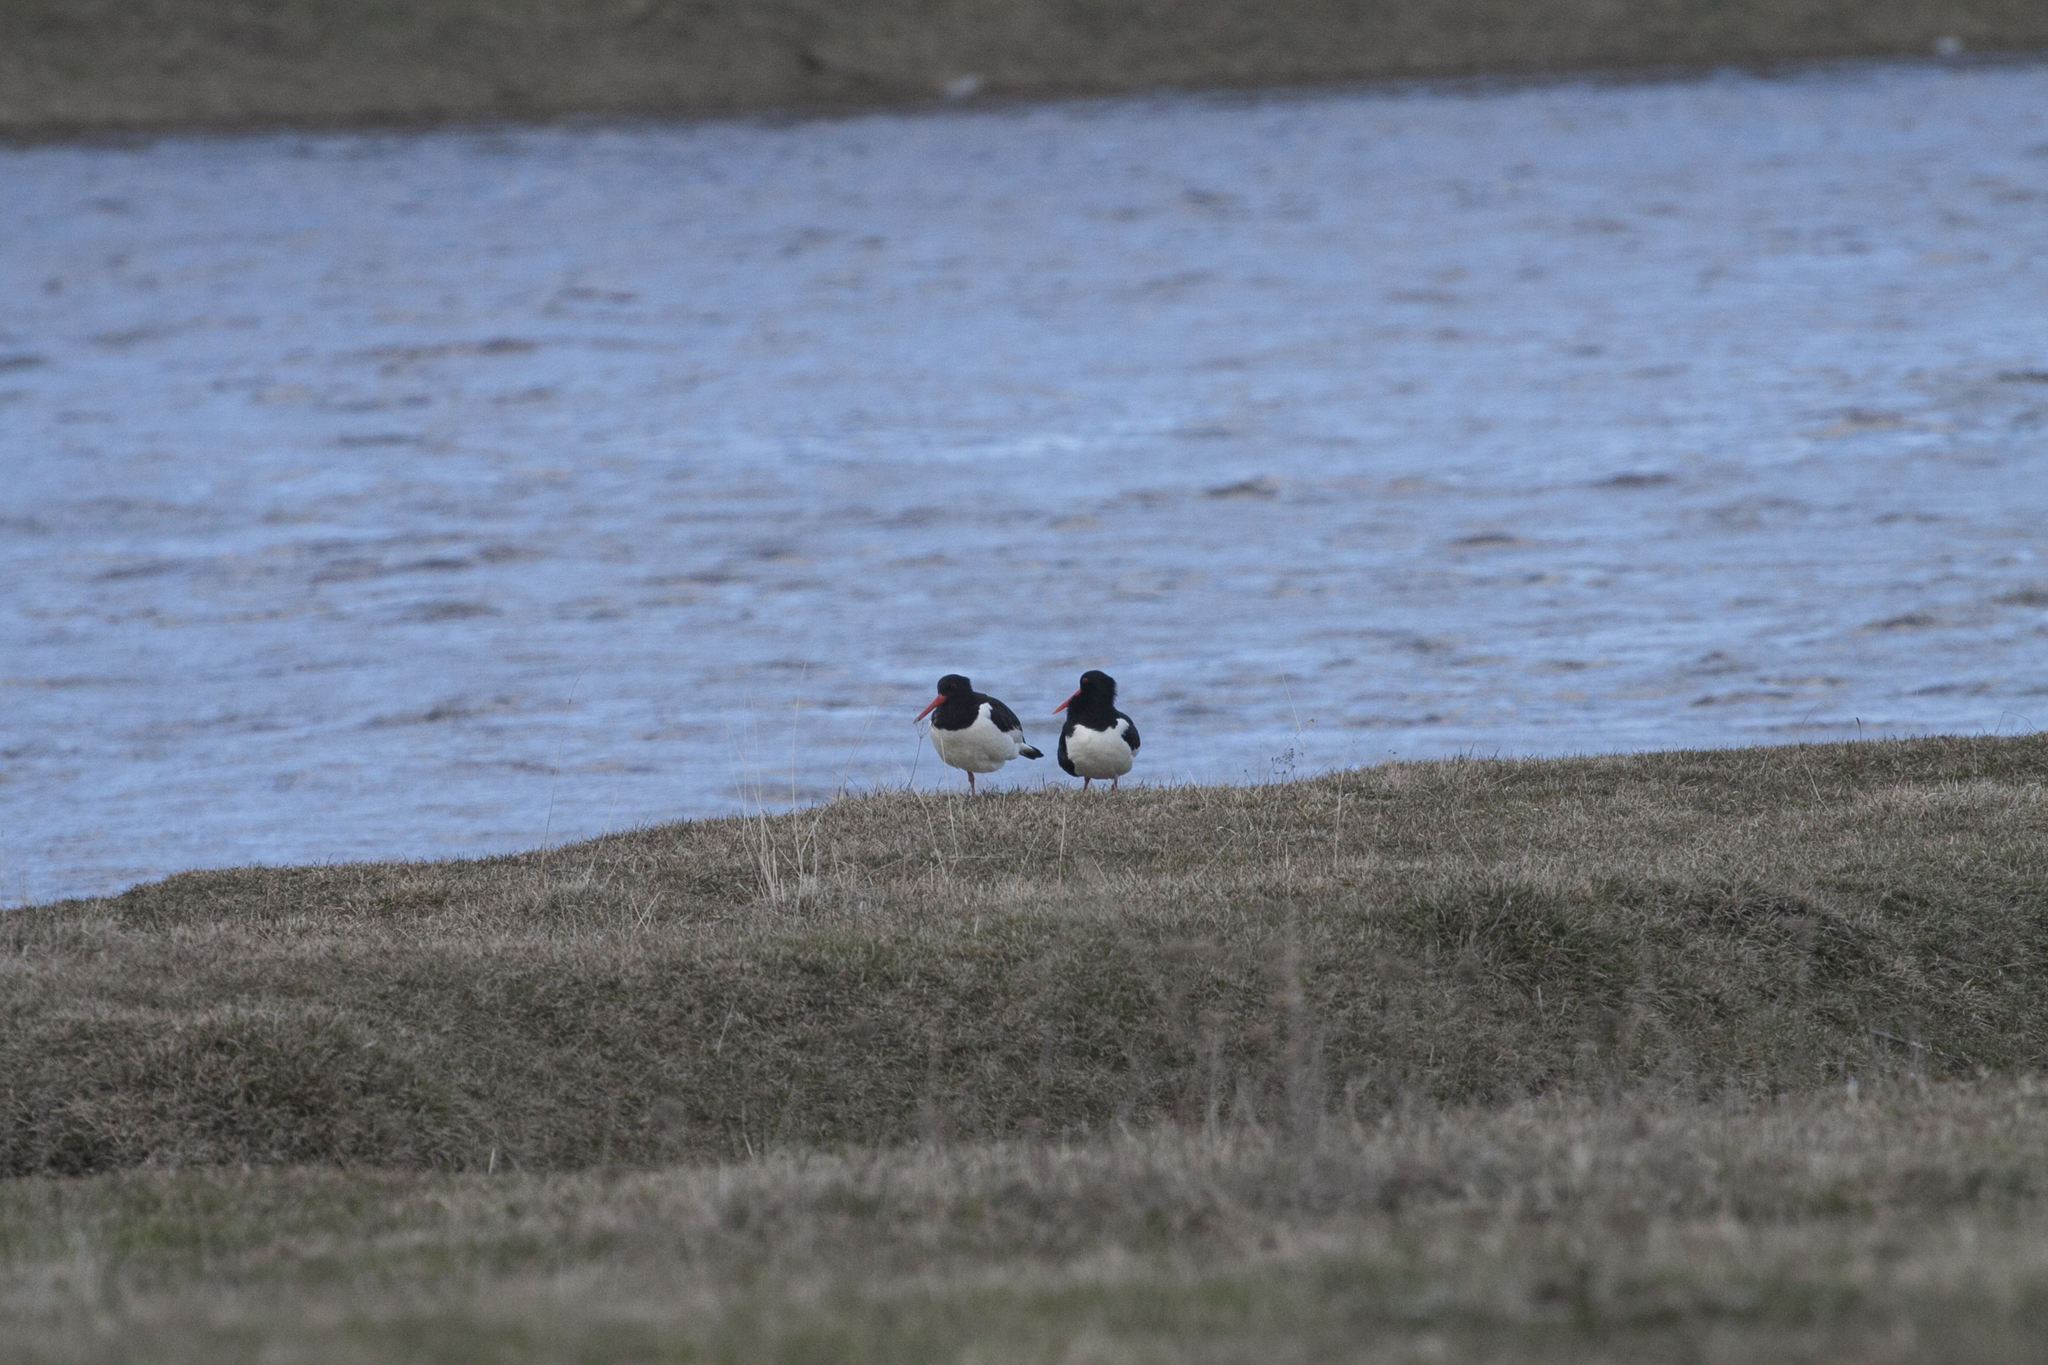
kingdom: Animalia
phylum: Chordata
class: Aves
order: Charadriiformes
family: Haematopodidae
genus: Haematopus
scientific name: Haematopus ostralegus
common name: Eurasian oystercatcher
